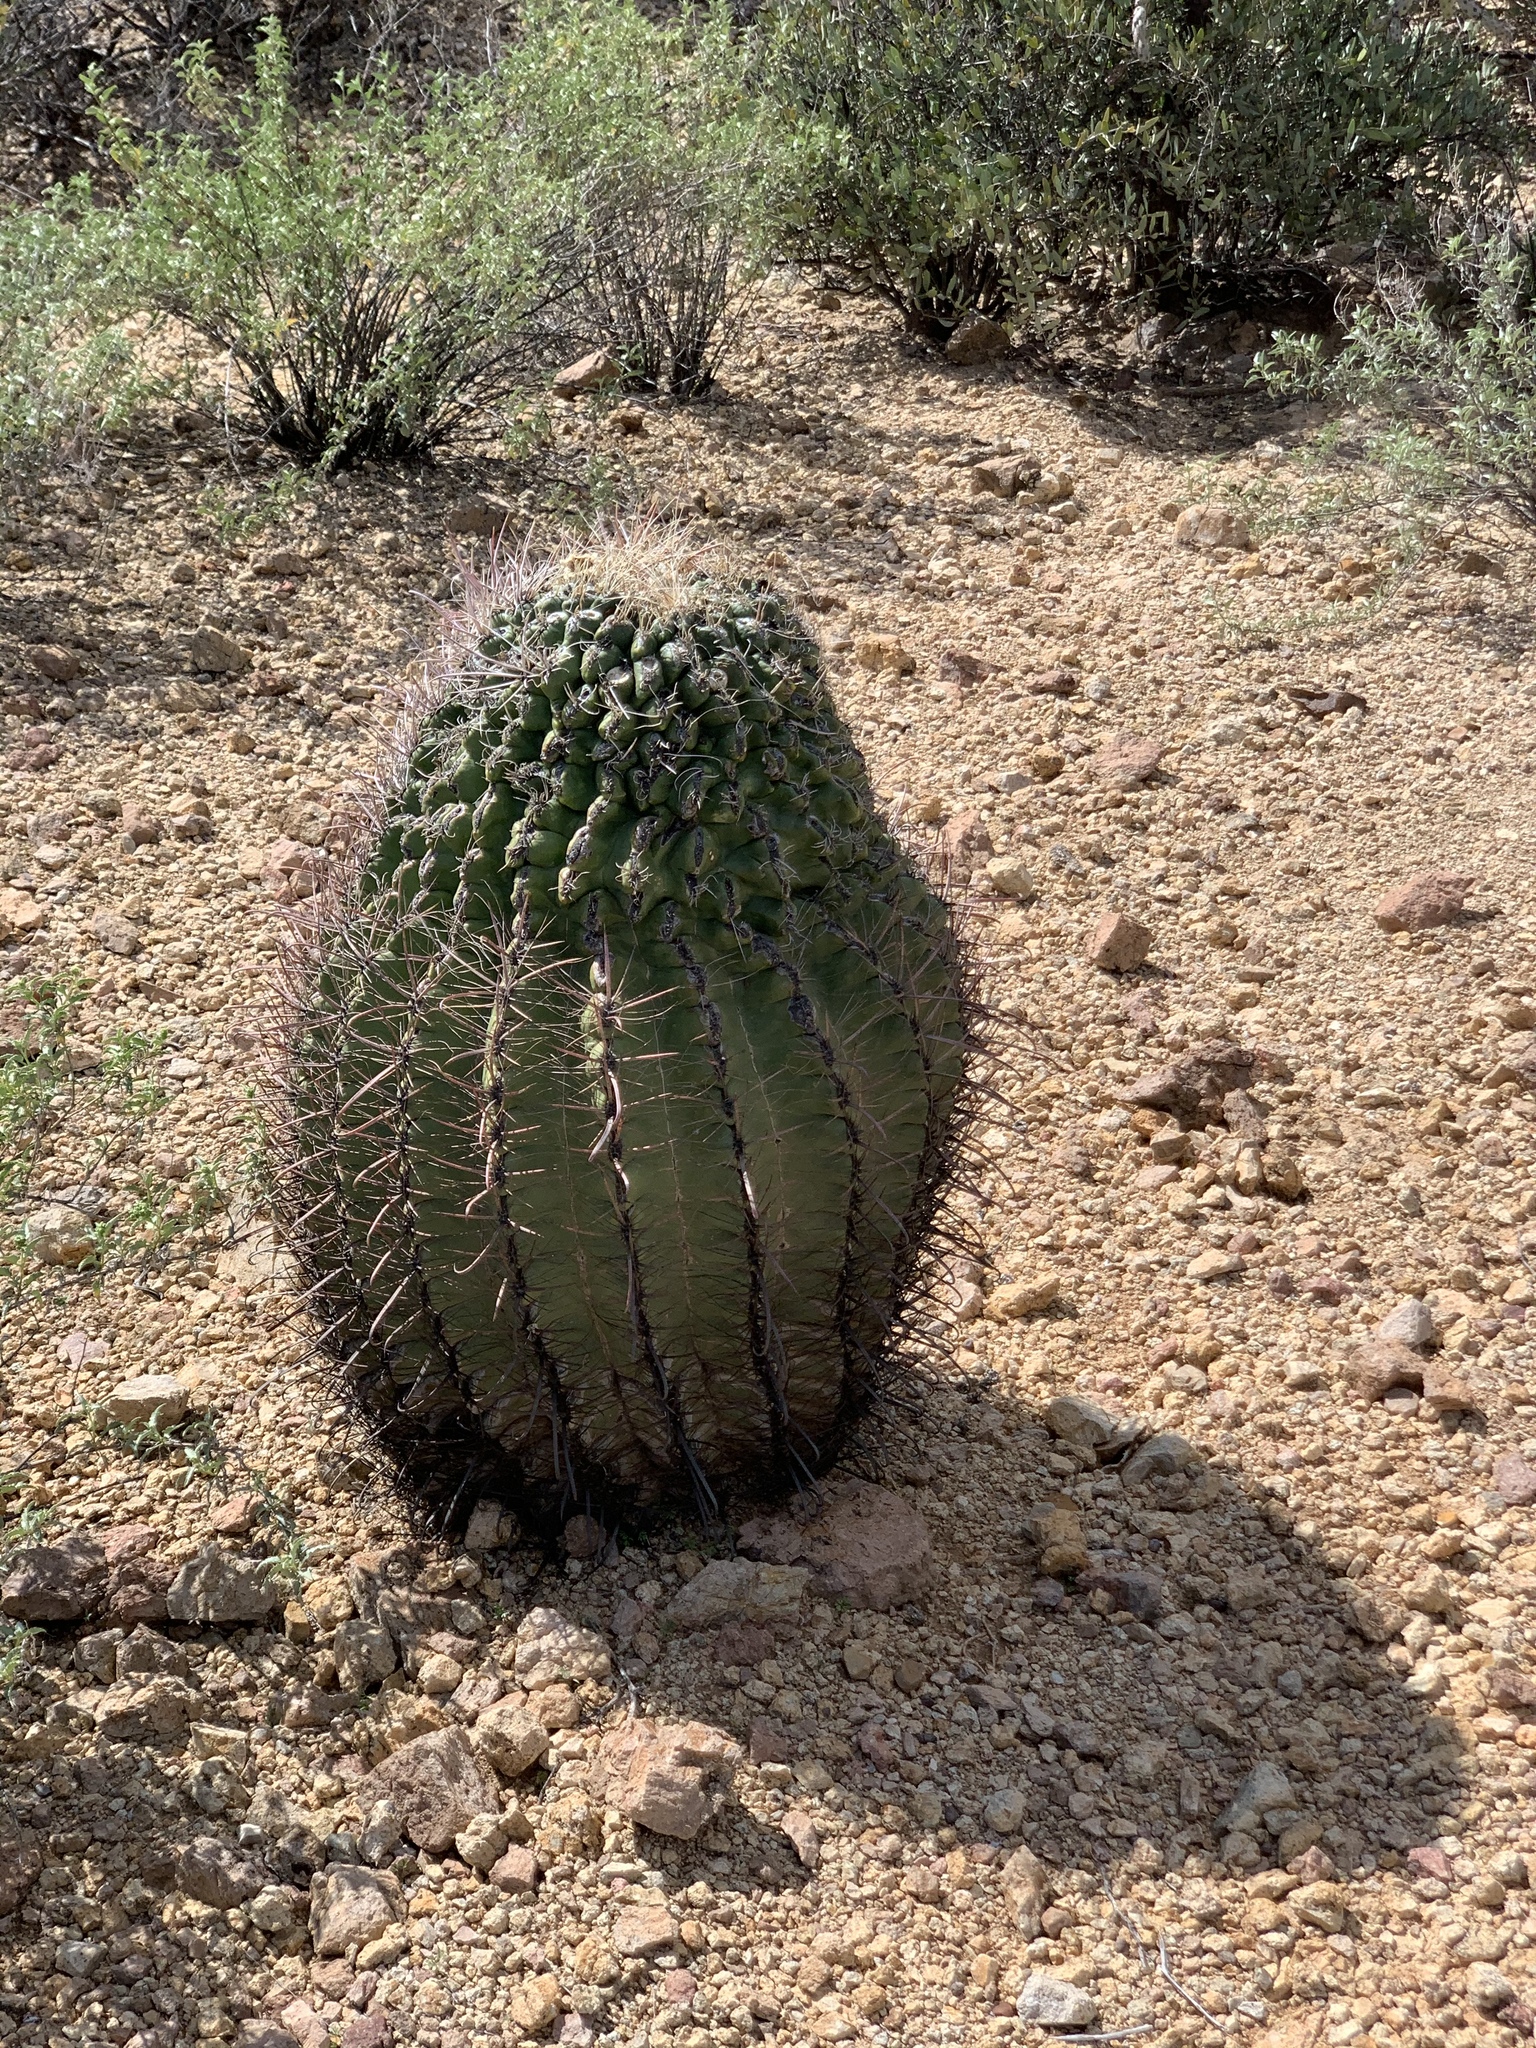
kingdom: Plantae
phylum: Tracheophyta
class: Magnoliopsida
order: Caryophyllales
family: Cactaceae
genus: Ferocactus
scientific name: Ferocactus wislizeni
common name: Candy barrel cactus
